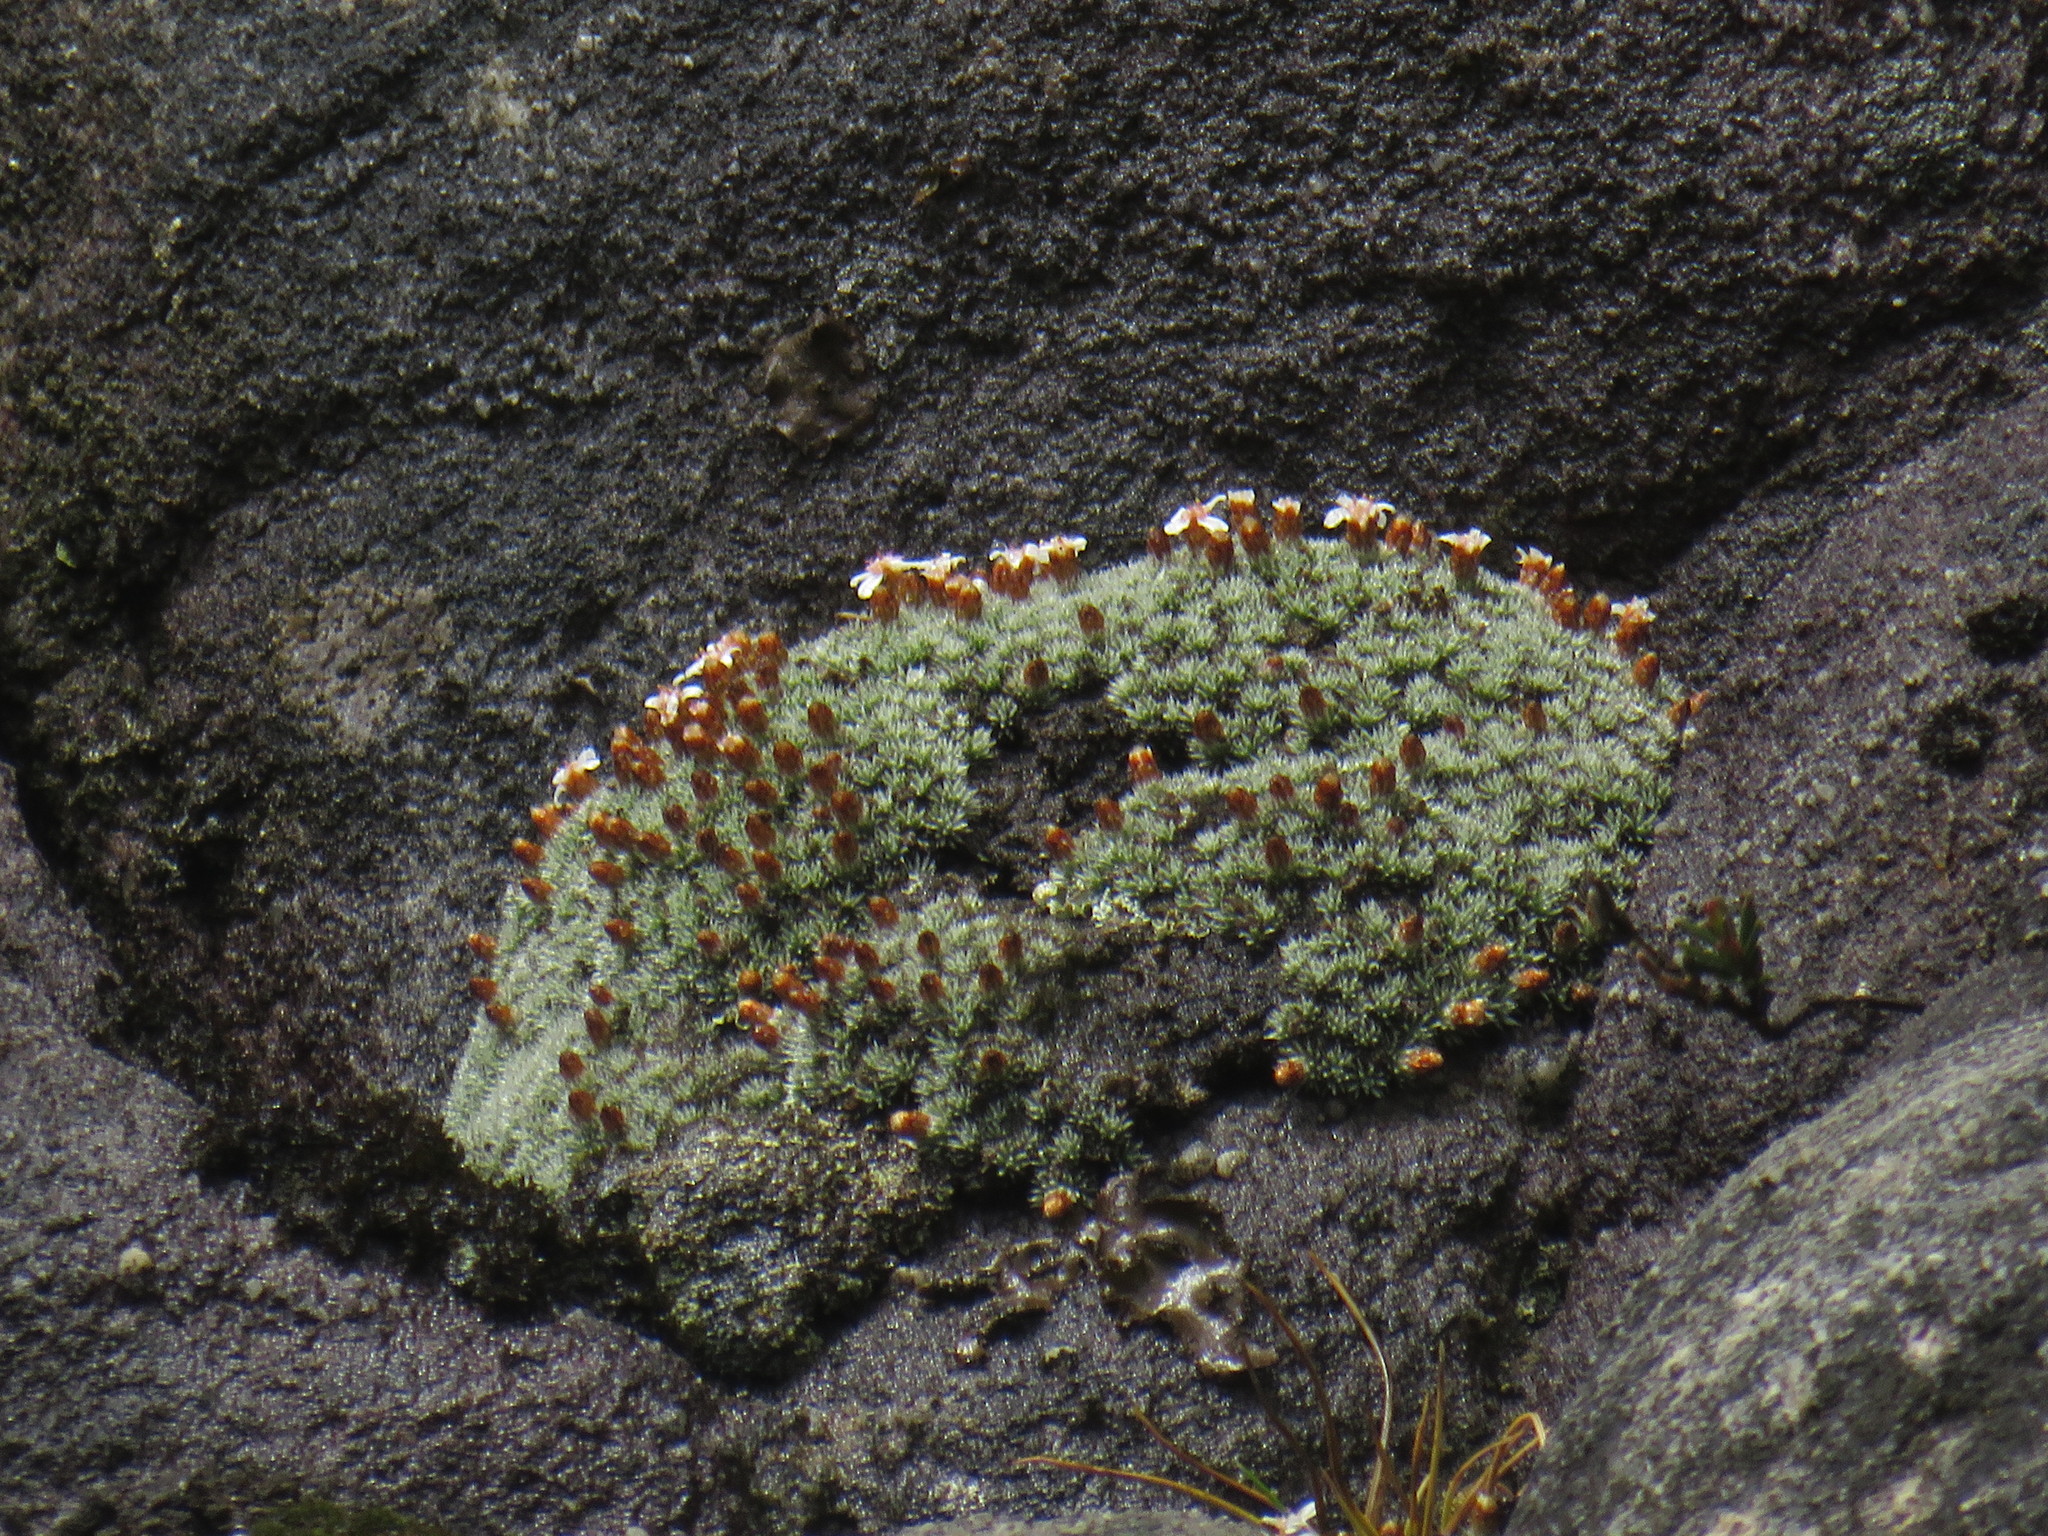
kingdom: Plantae
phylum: Tracheophyta
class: Magnoliopsida
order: Asterales
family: Asteraceae
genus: Muscosomorphe
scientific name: Muscosomorphe aretioides
